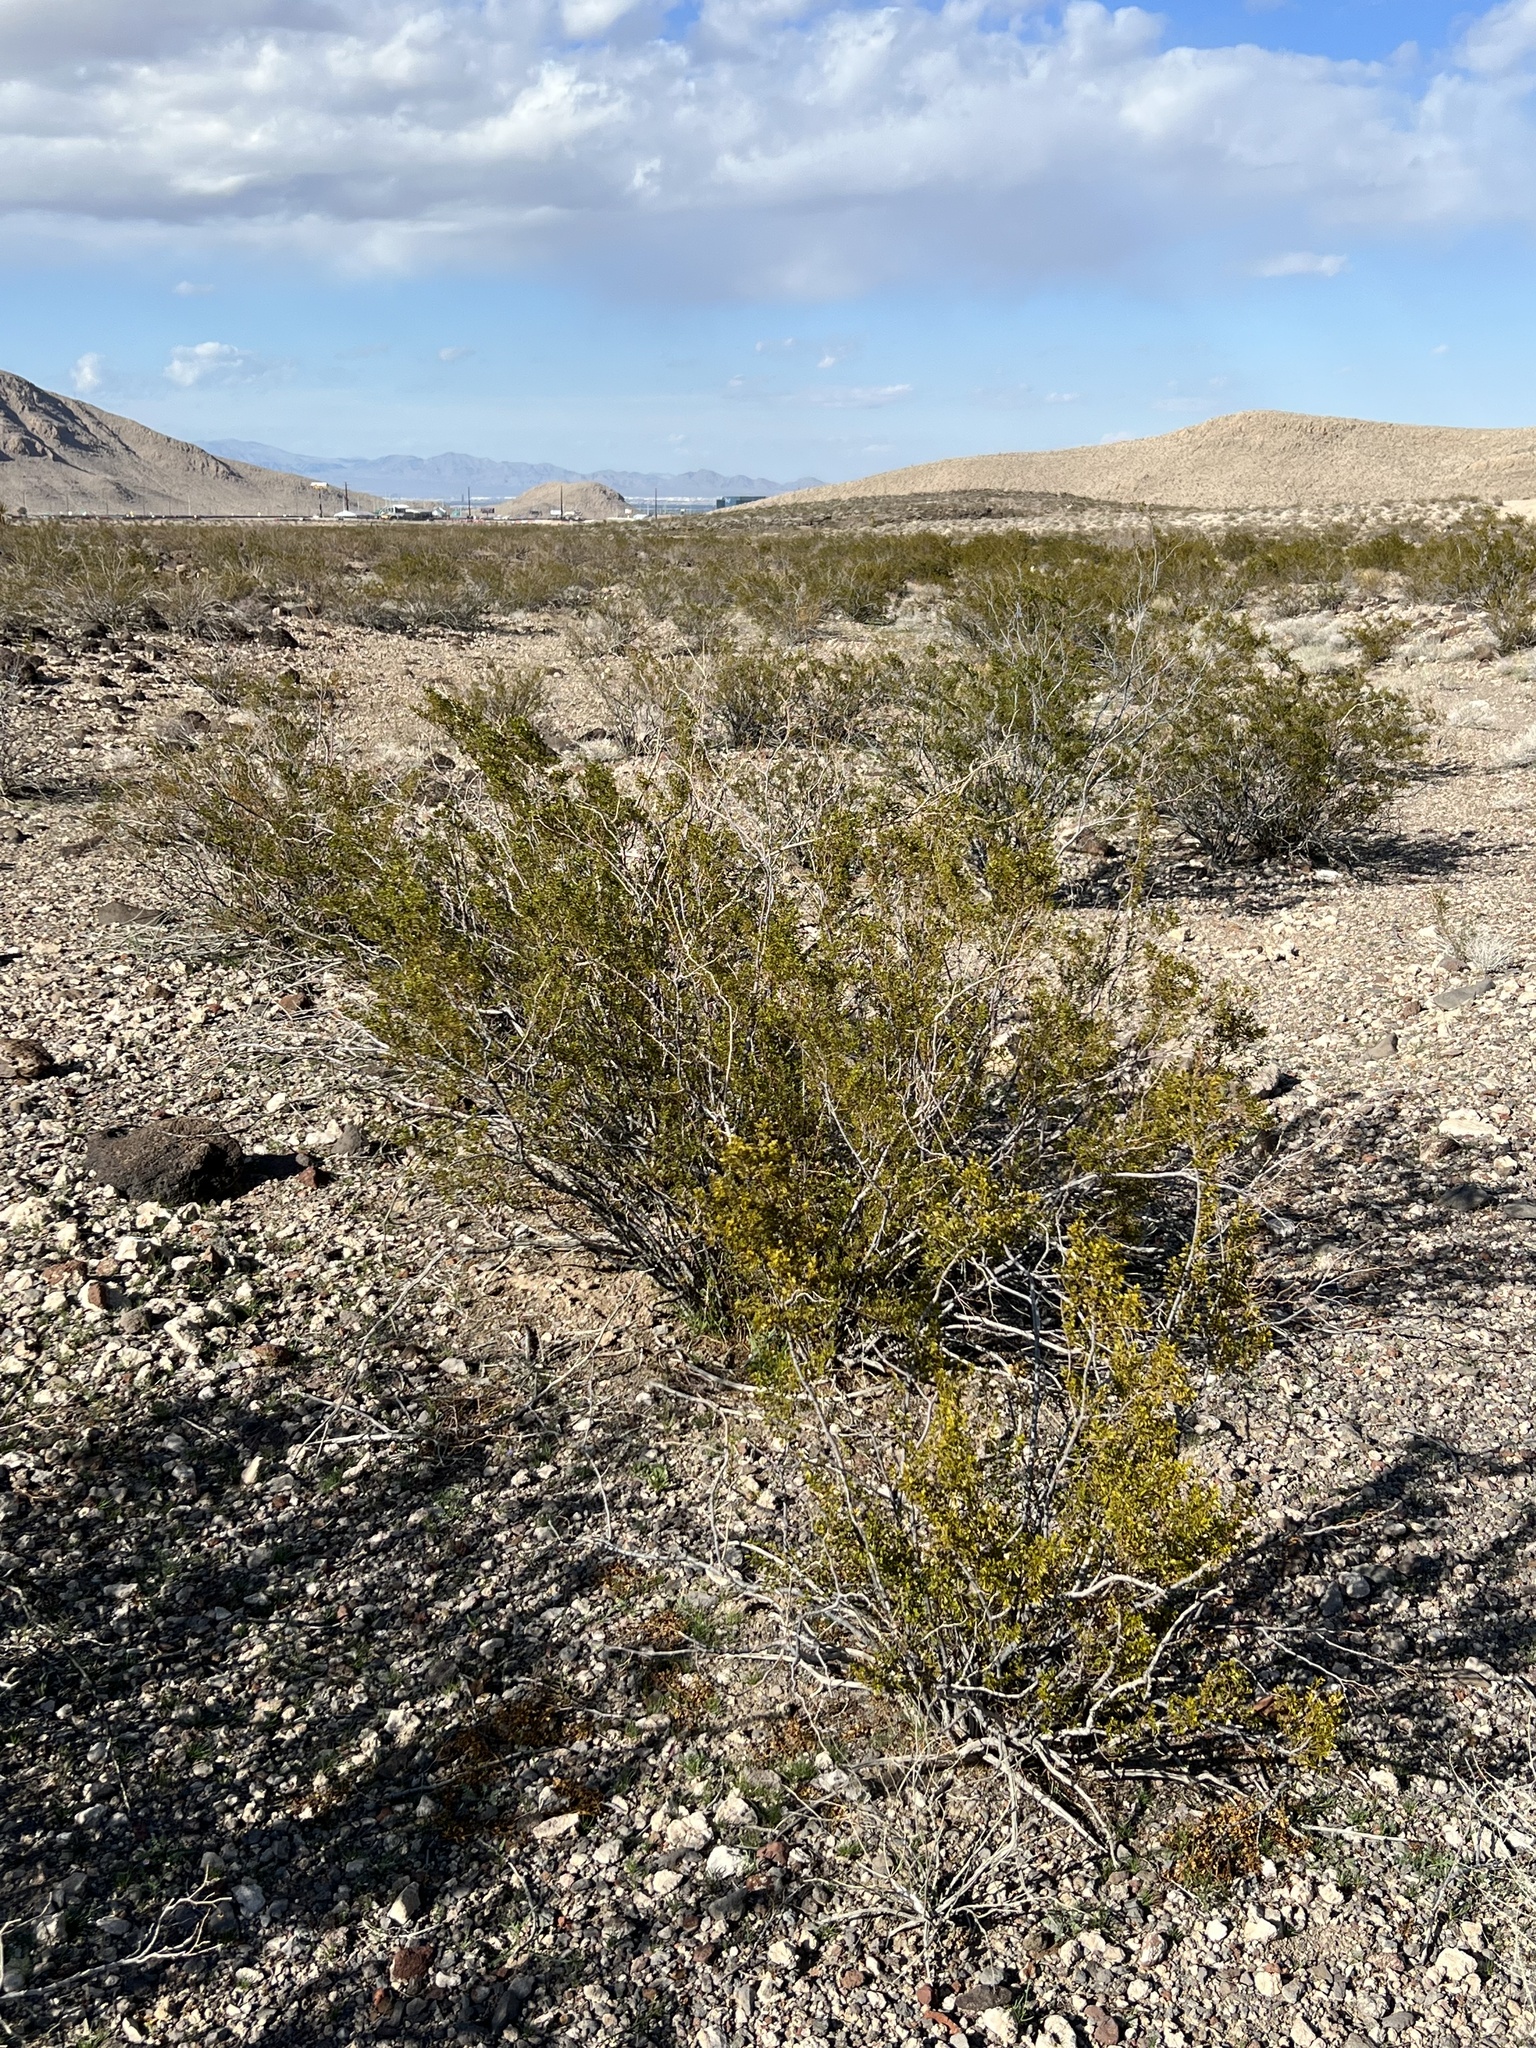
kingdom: Plantae
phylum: Tracheophyta
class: Magnoliopsida
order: Zygophyllales
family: Zygophyllaceae
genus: Larrea
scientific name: Larrea tridentata
